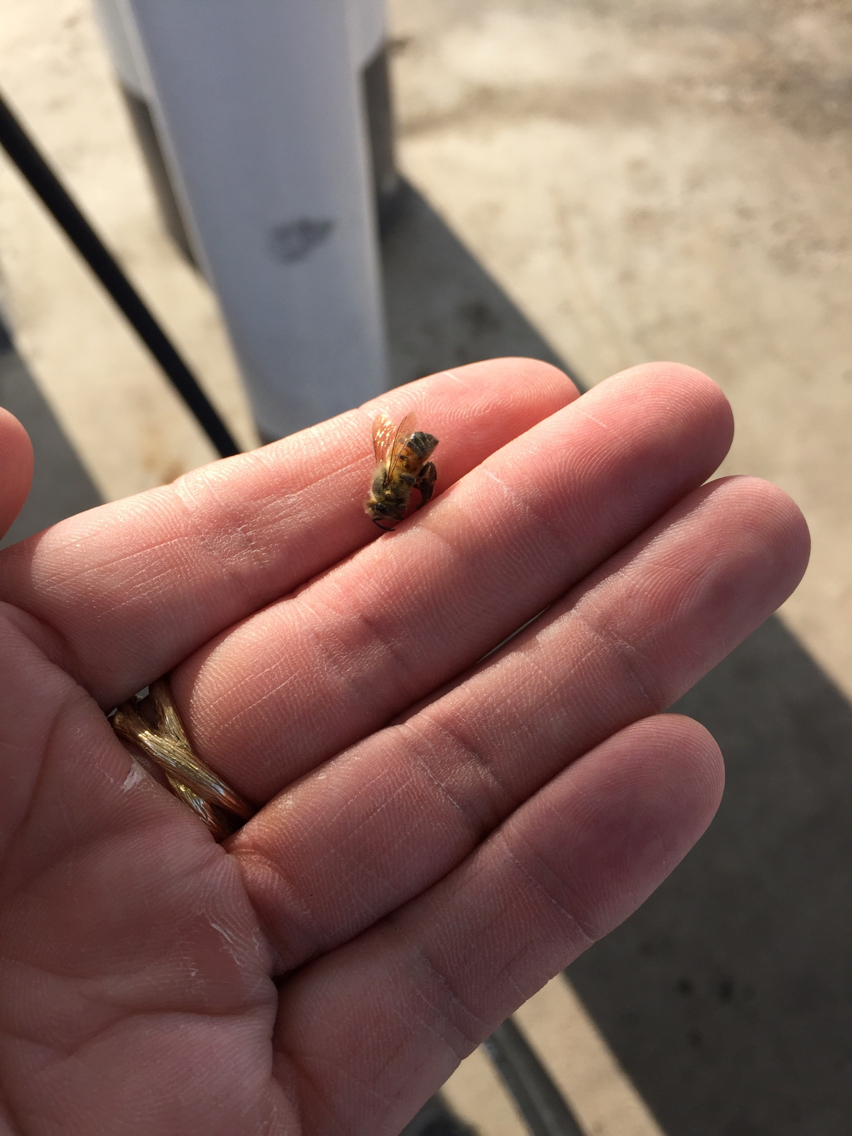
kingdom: Animalia
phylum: Arthropoda
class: Insecta
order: Hymenoptera
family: Apidae
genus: Apis
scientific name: Apis mellifera
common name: Honey bee
